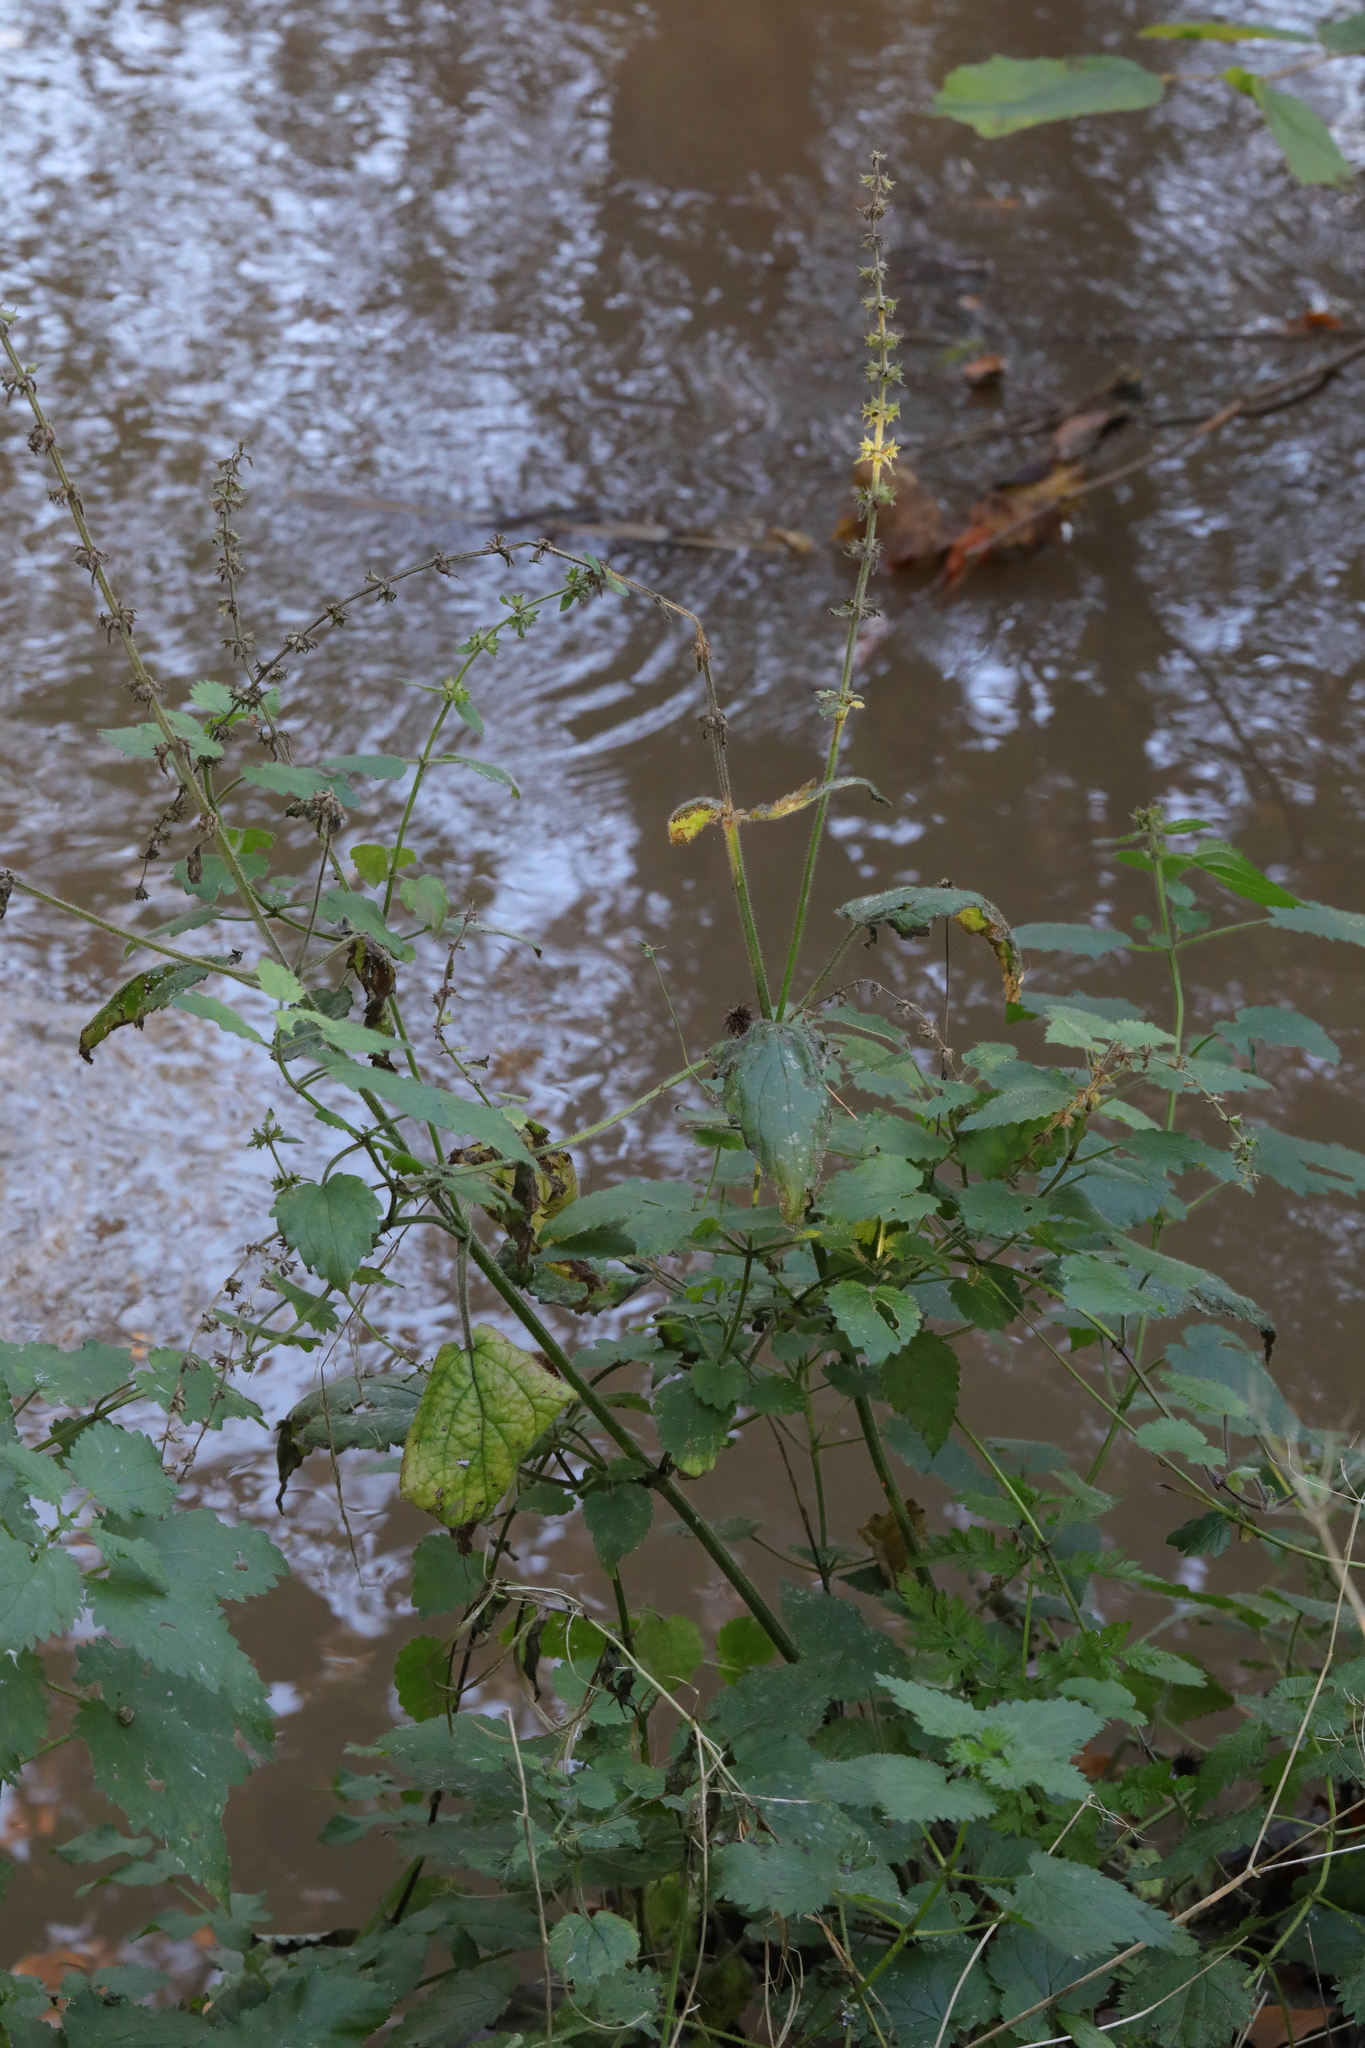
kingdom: Plantae
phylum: Tracheophyta
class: Magnoliopsida
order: Lamiales
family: Lamiaceae
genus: Stachys
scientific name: Stachys sylvatica
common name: Hedge woundwort
